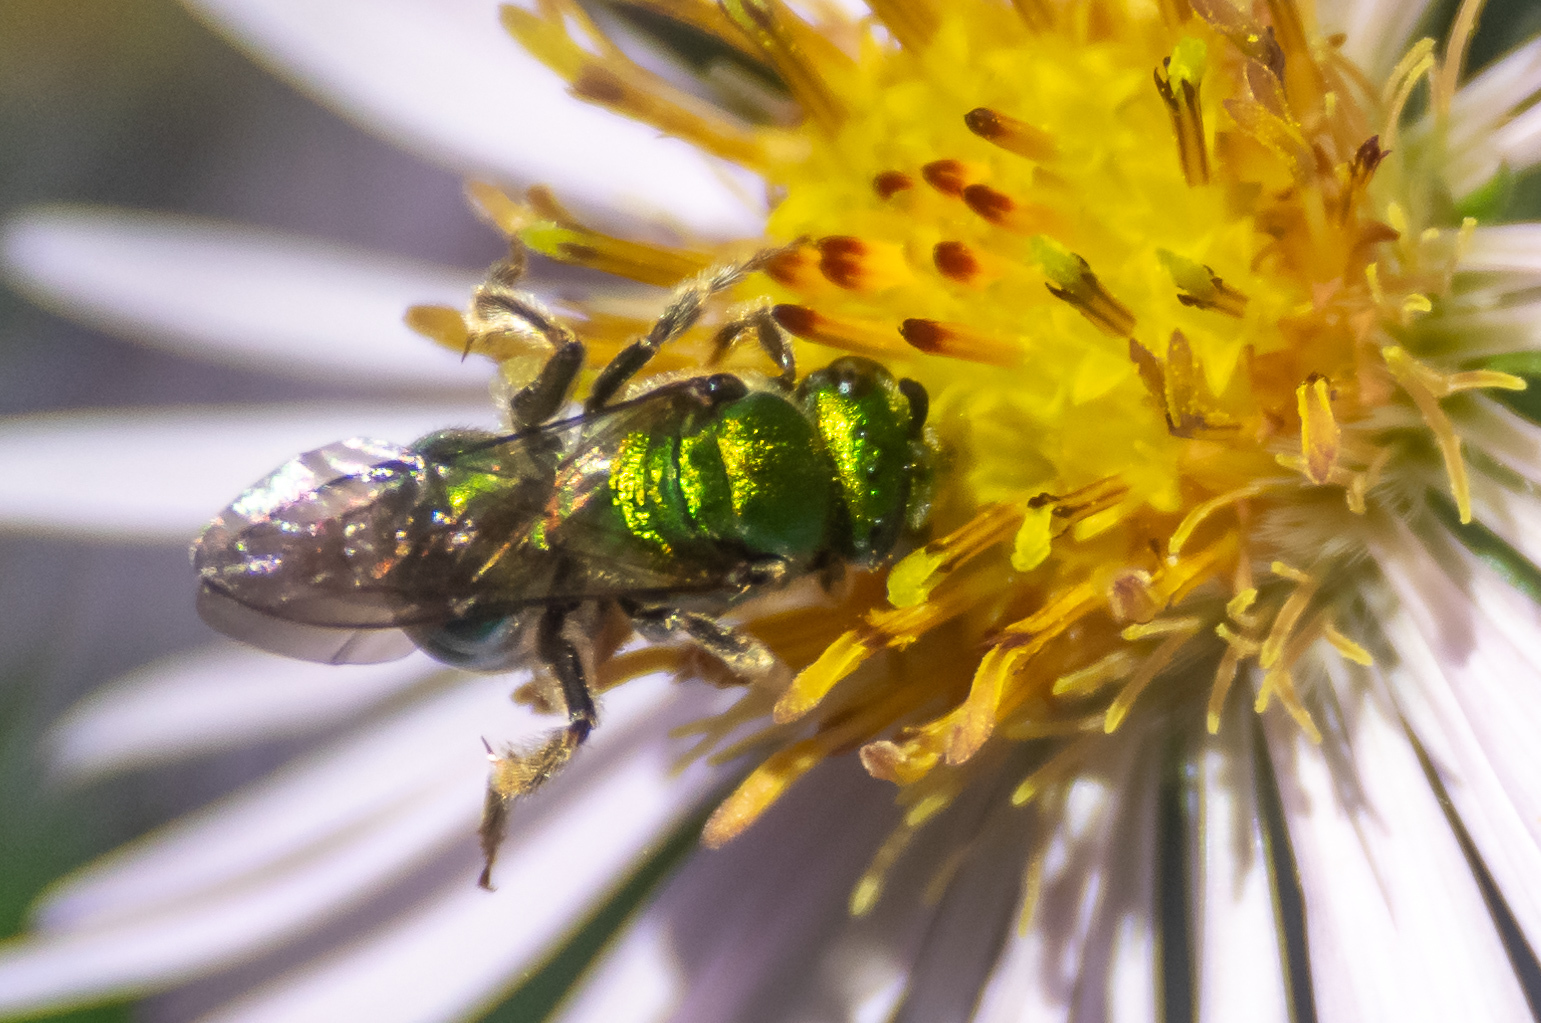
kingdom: Animalia
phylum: Arthropoda
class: Insecta
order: Hymenoptera
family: Halictidae
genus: Augochlora
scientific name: Augochlora pura
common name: Pure green sweat bee
